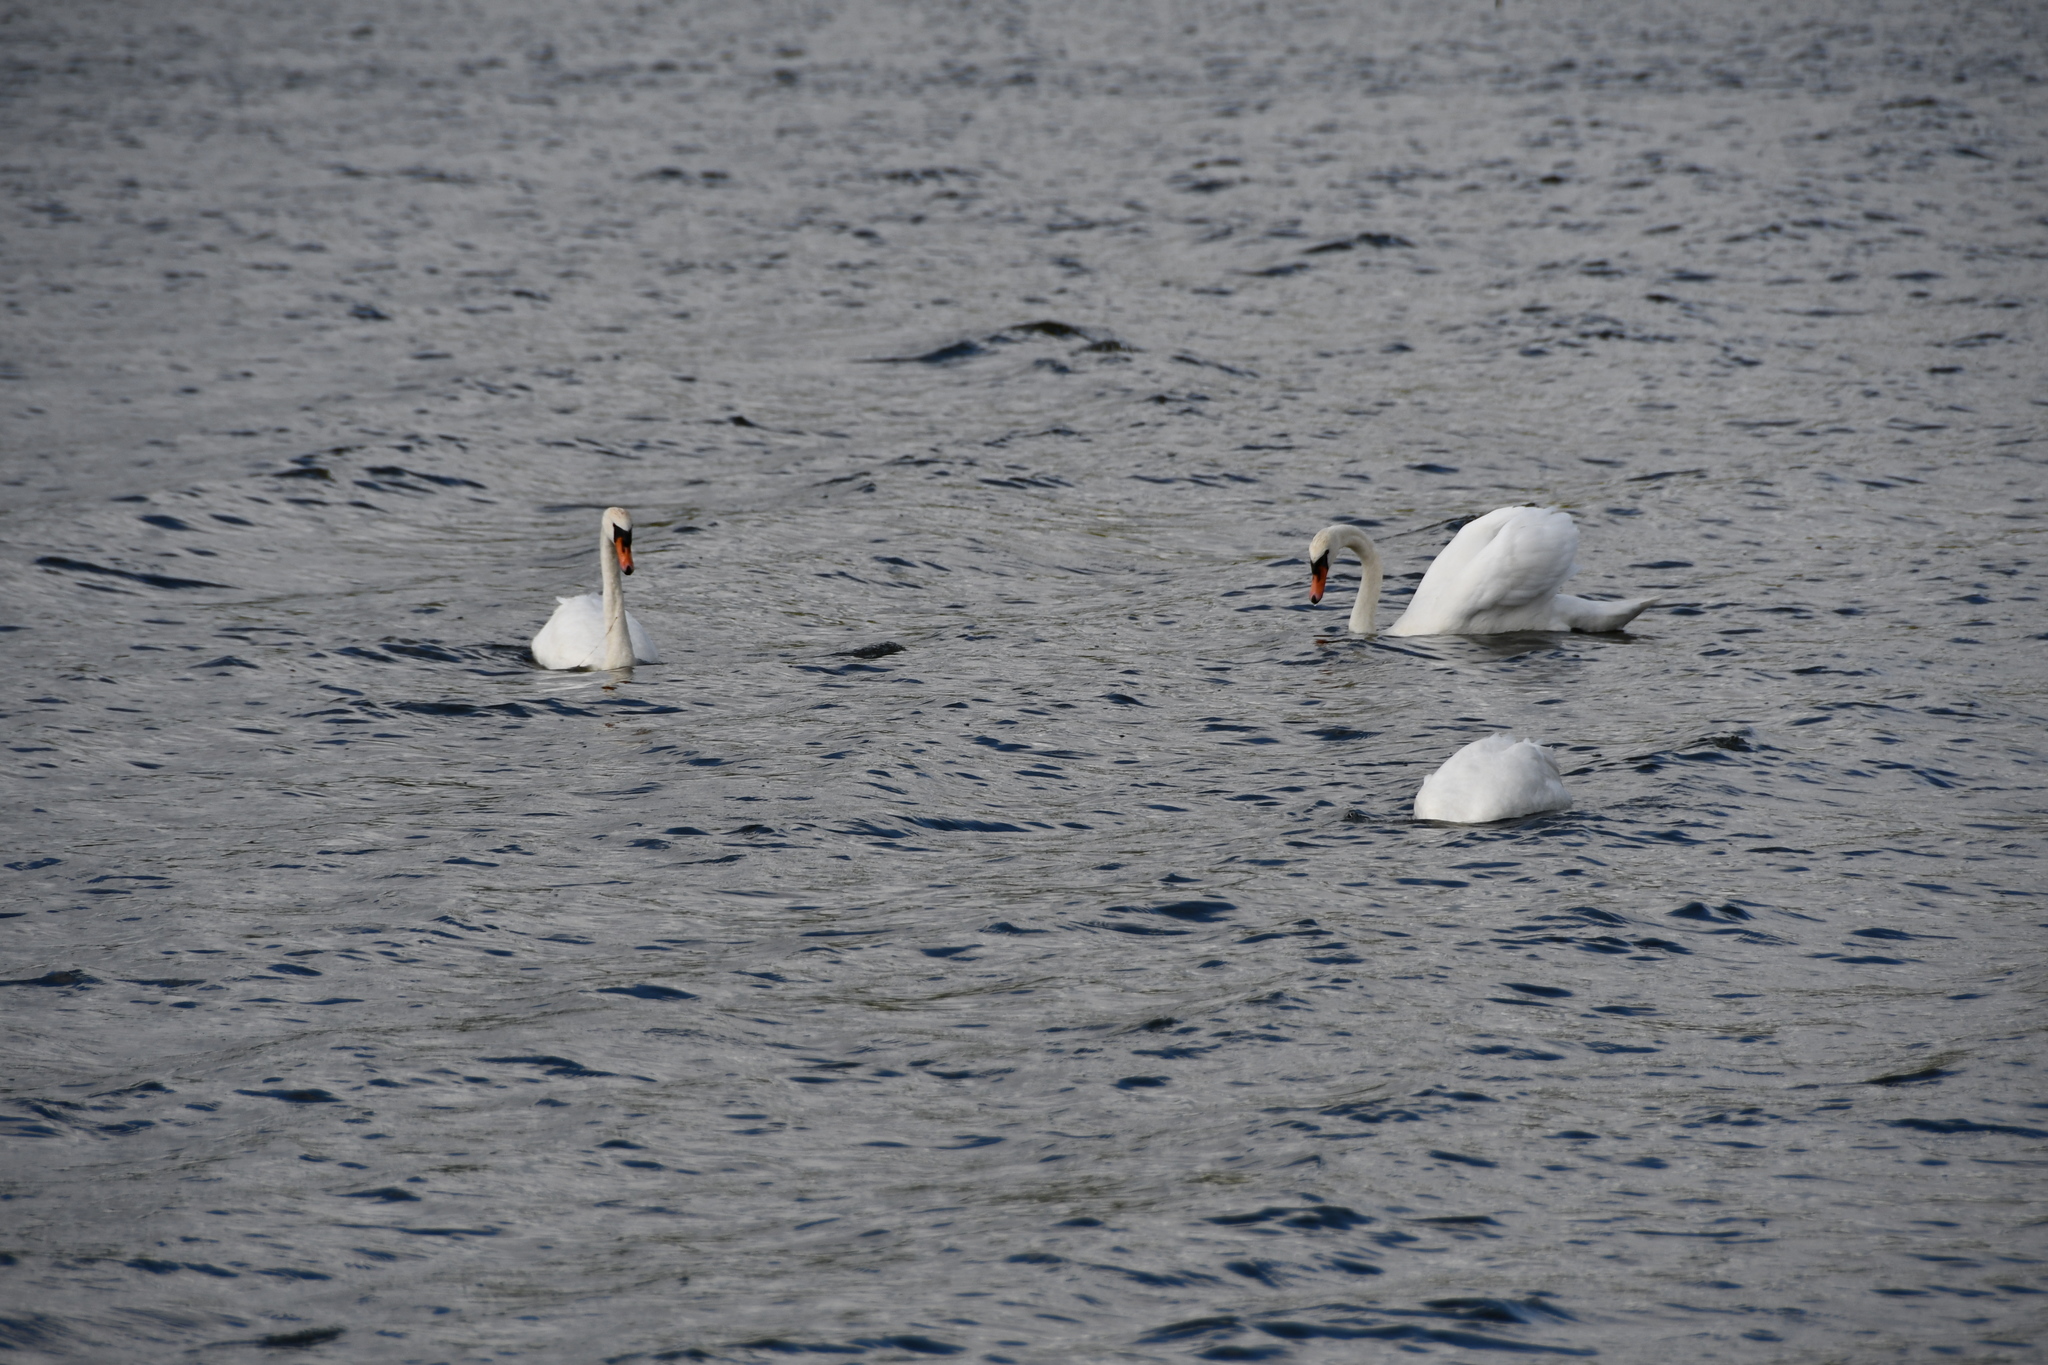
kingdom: Animalia
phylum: Chordata
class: Aves
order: Anseriformes
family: Anatidae
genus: Cygnus
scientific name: Cygnus olor
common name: Mute swan
